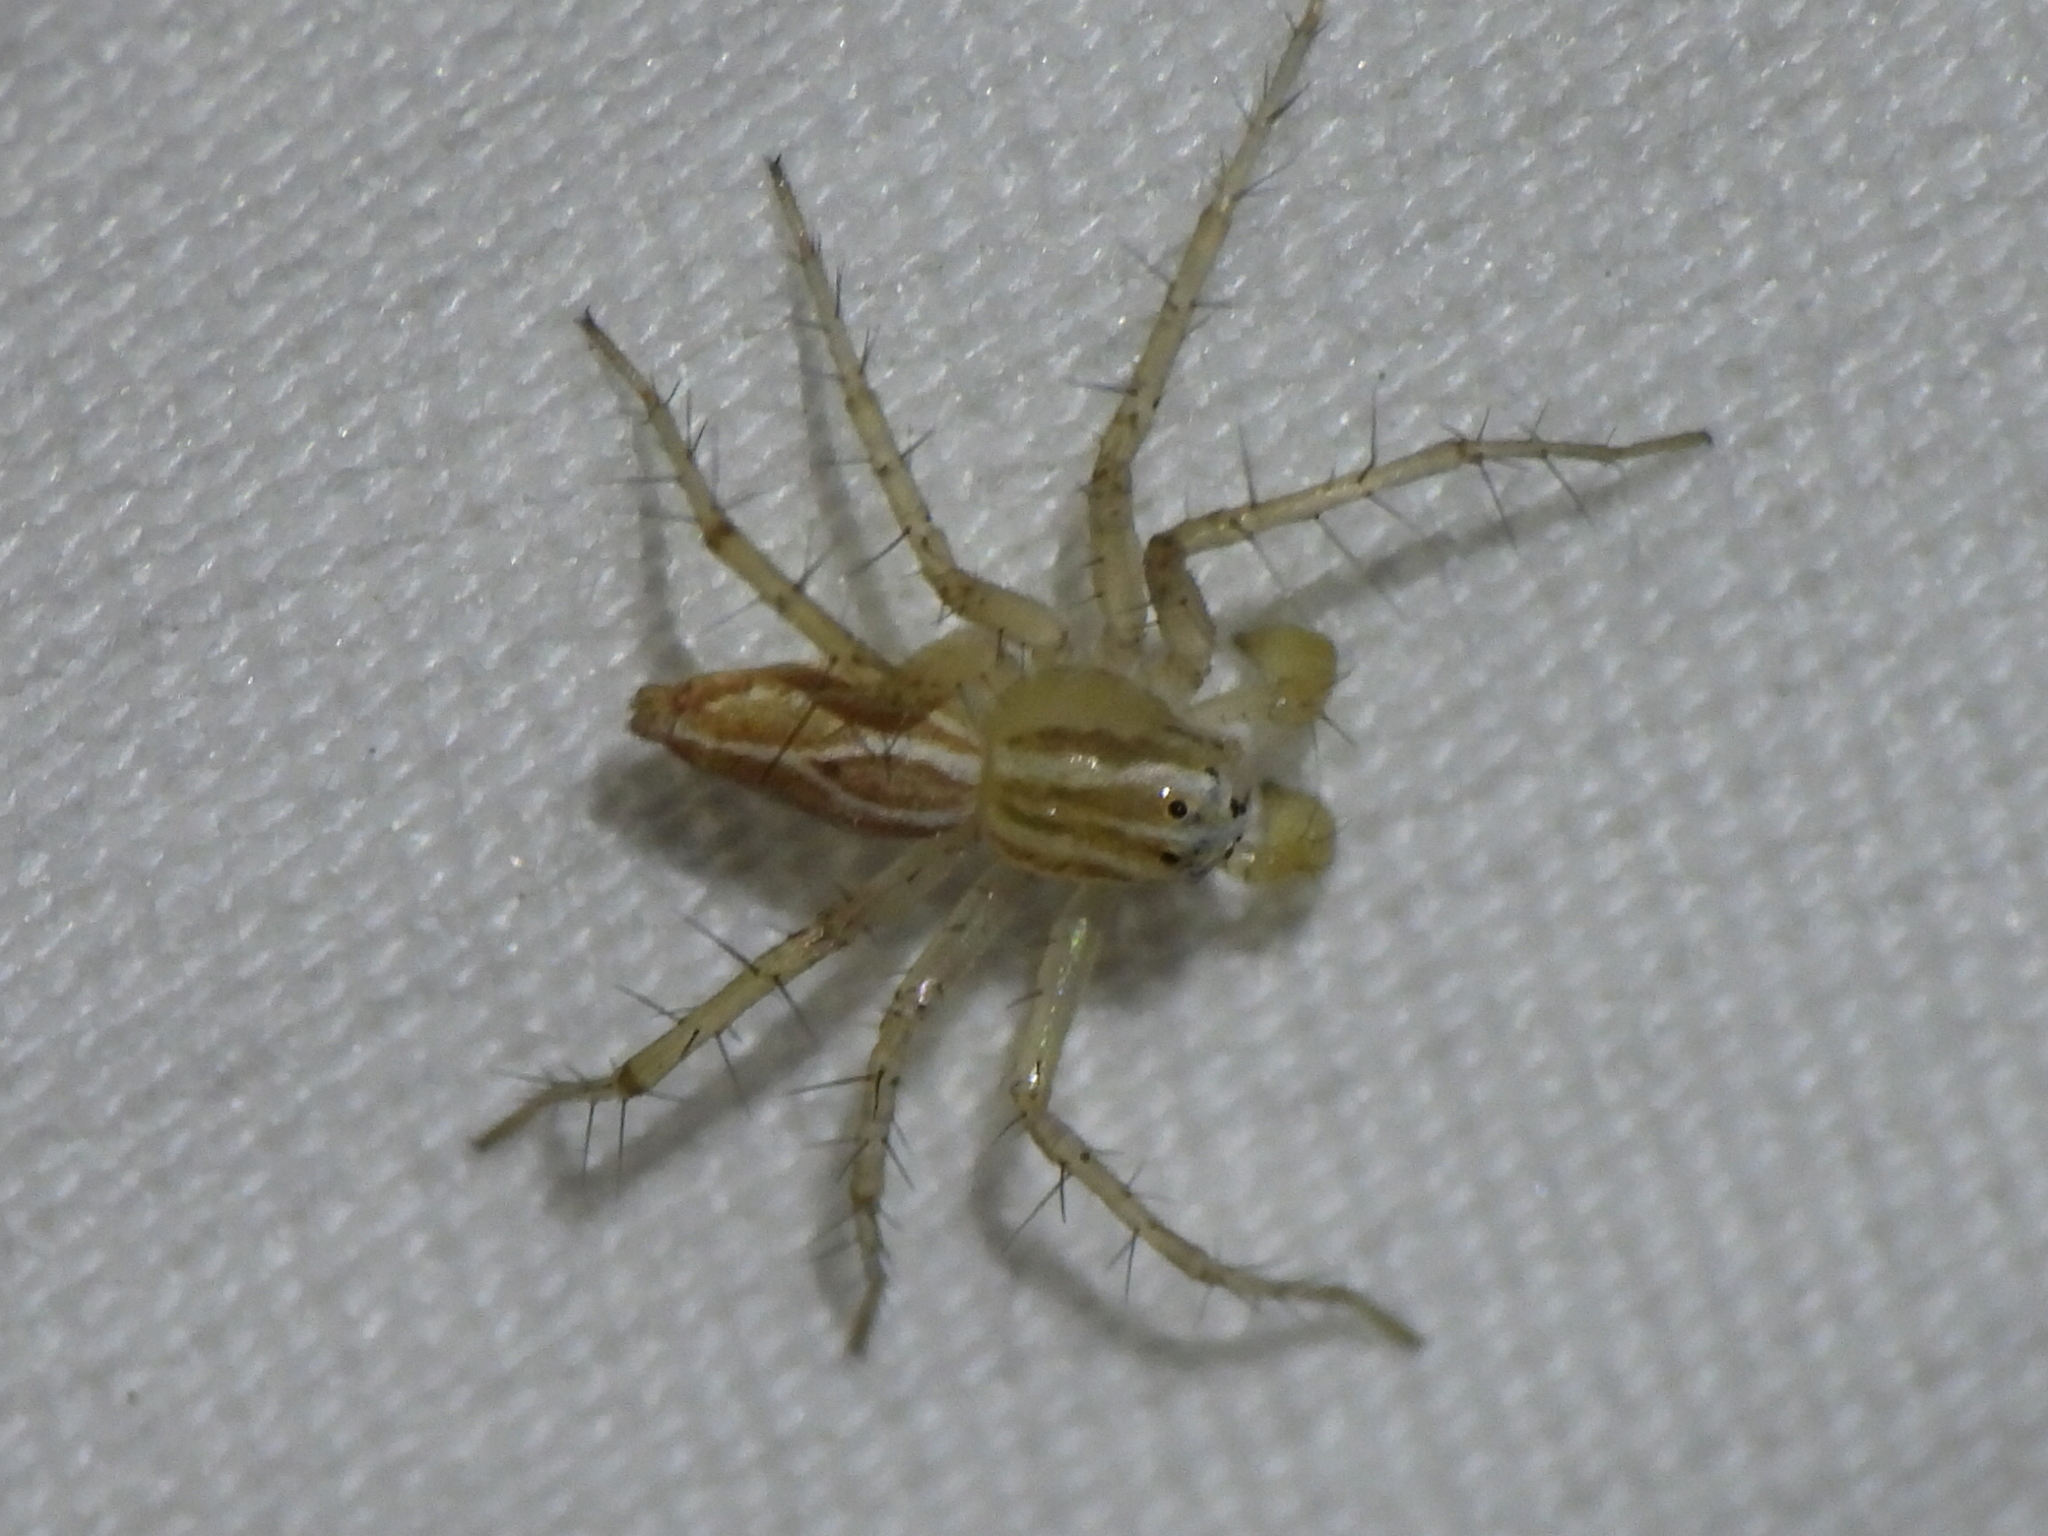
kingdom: Animalia
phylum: Arthropoda
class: Arachnida
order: Araneae
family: Oxyopidae
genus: Oxyopes
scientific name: Oxyopes salticus
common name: Lynx spiders
